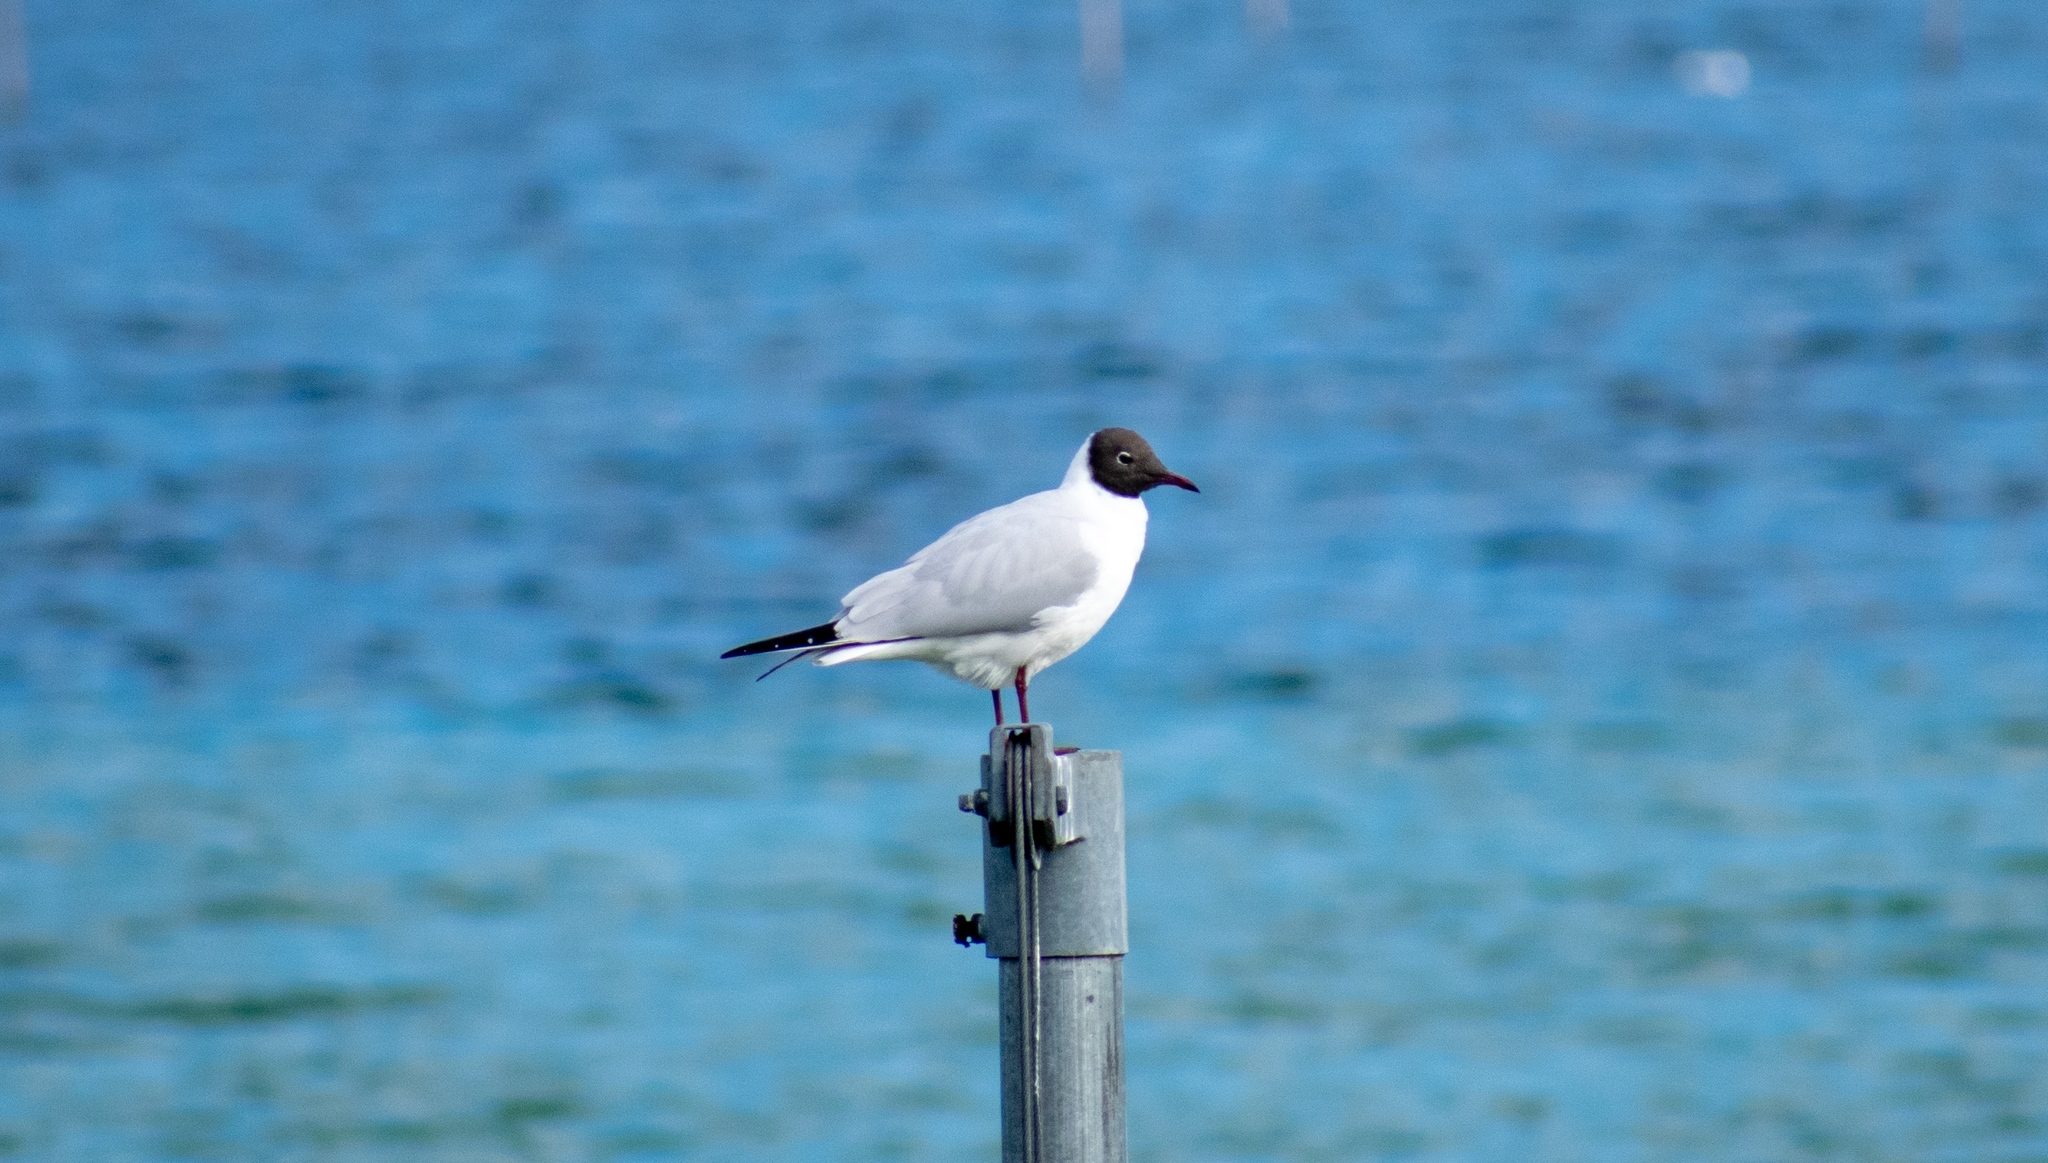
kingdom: Animalia
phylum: Chordata
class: Aves
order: Charadriiformes
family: Laridae
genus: Chroicocephalus
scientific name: Chroicocephalus ridibundus
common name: Black-headed gull
